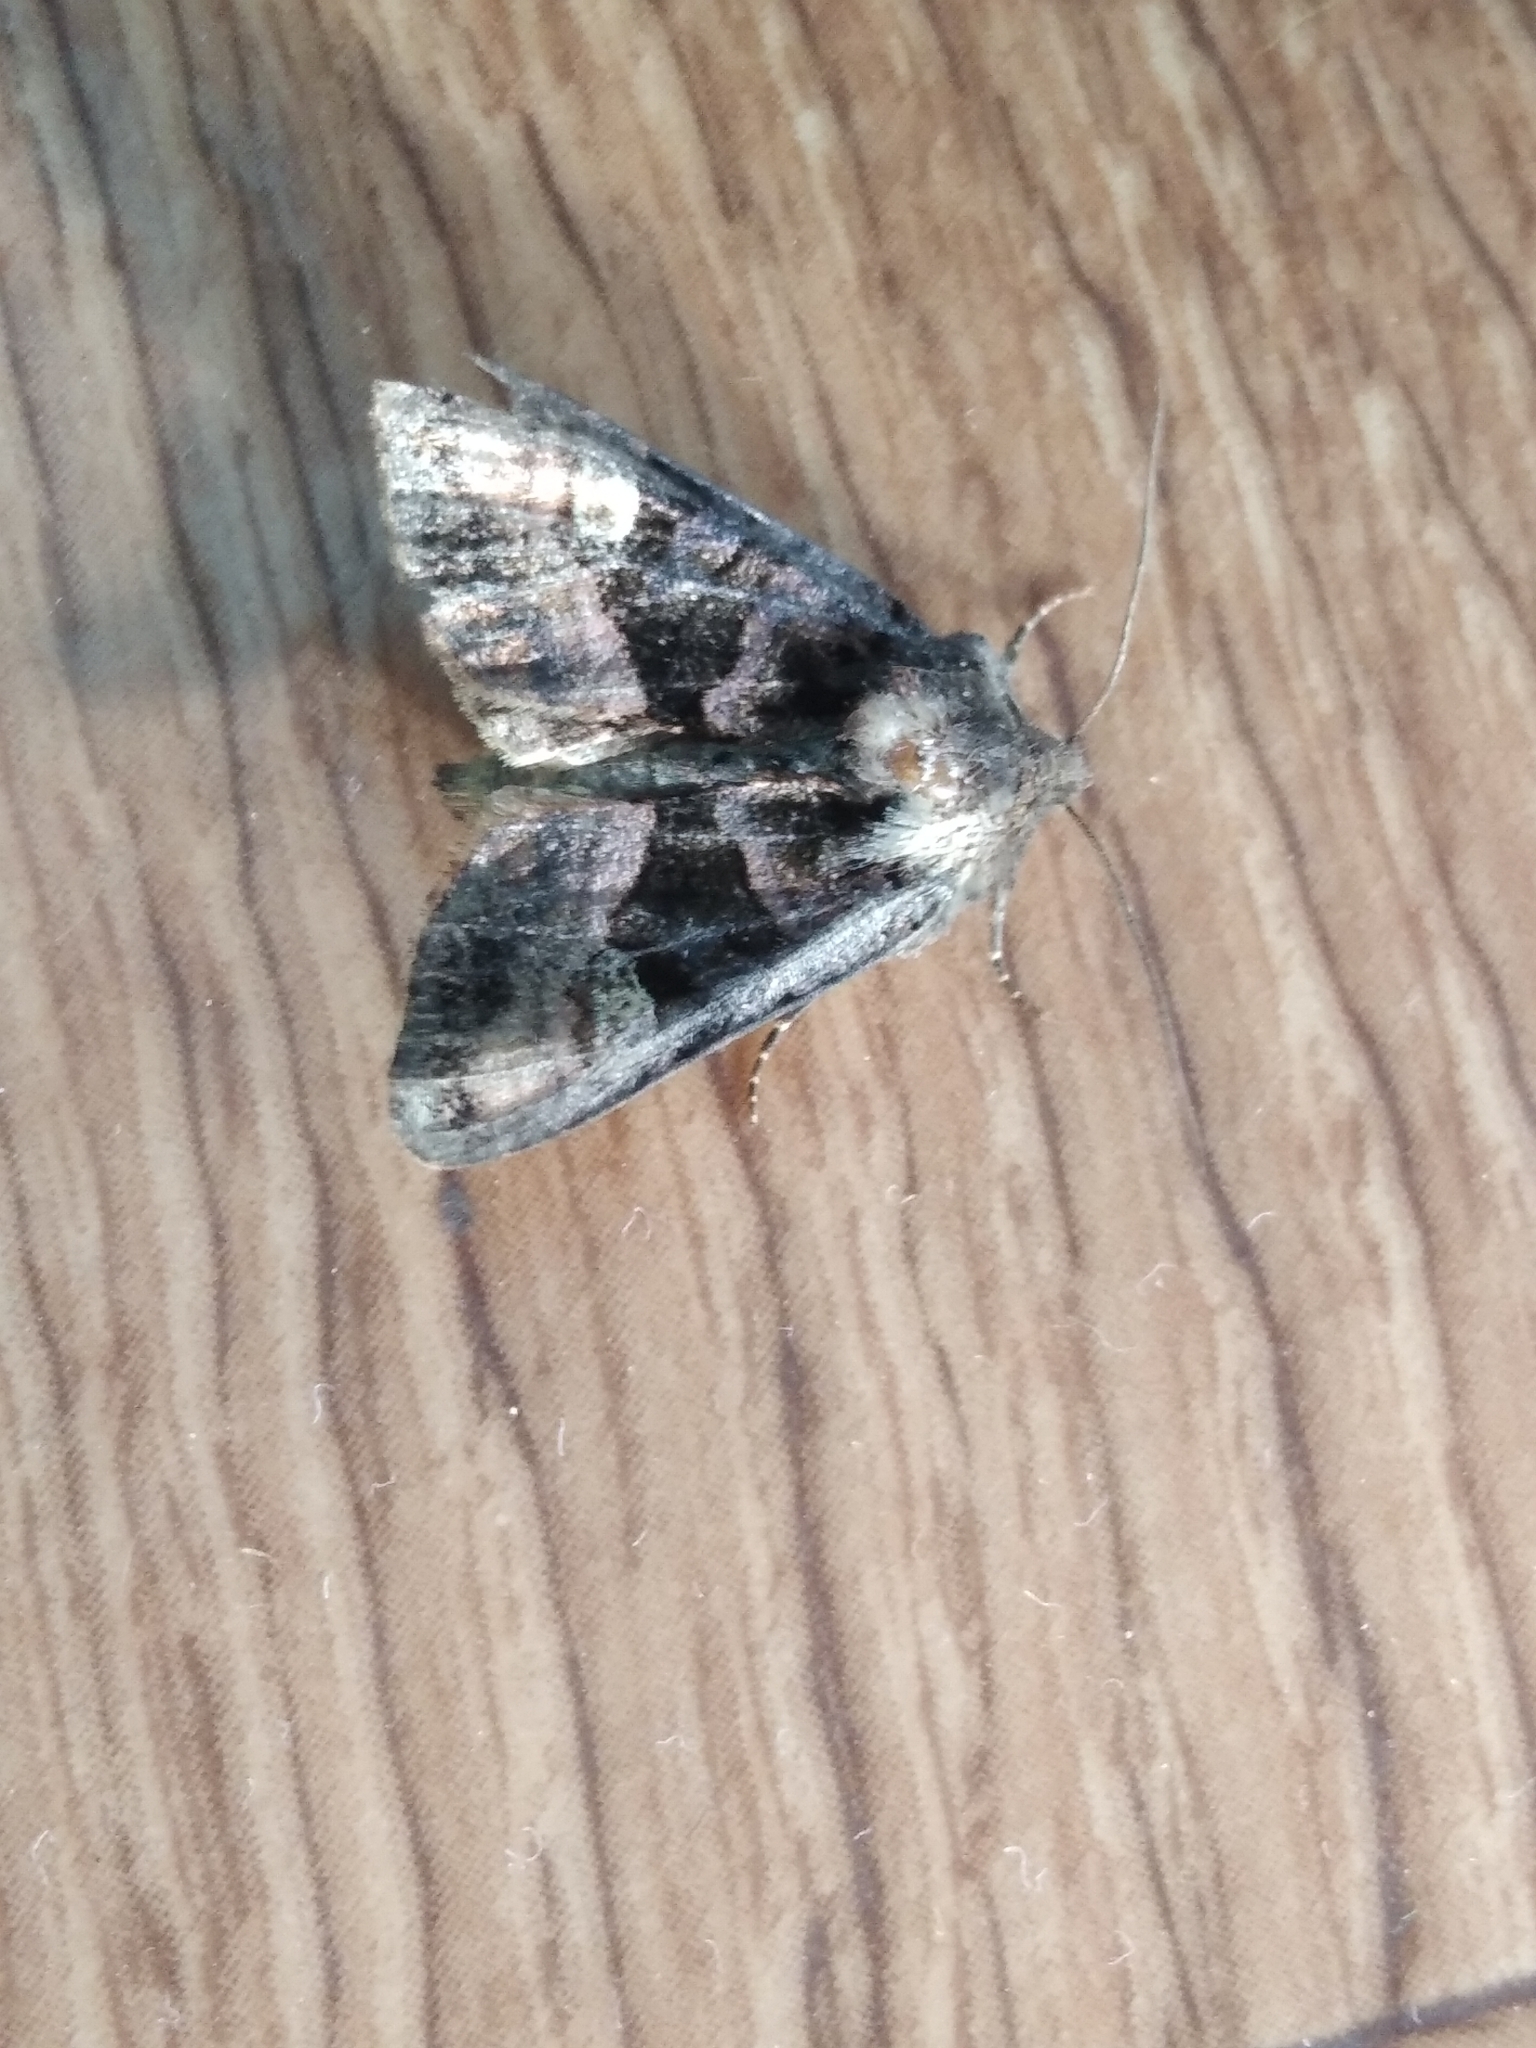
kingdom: Animalia
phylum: Arthropoda
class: Insecta
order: Lepidoptera
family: Noctuidae
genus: Euplexia
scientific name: Euplexia lucipara
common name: Small angle shades
